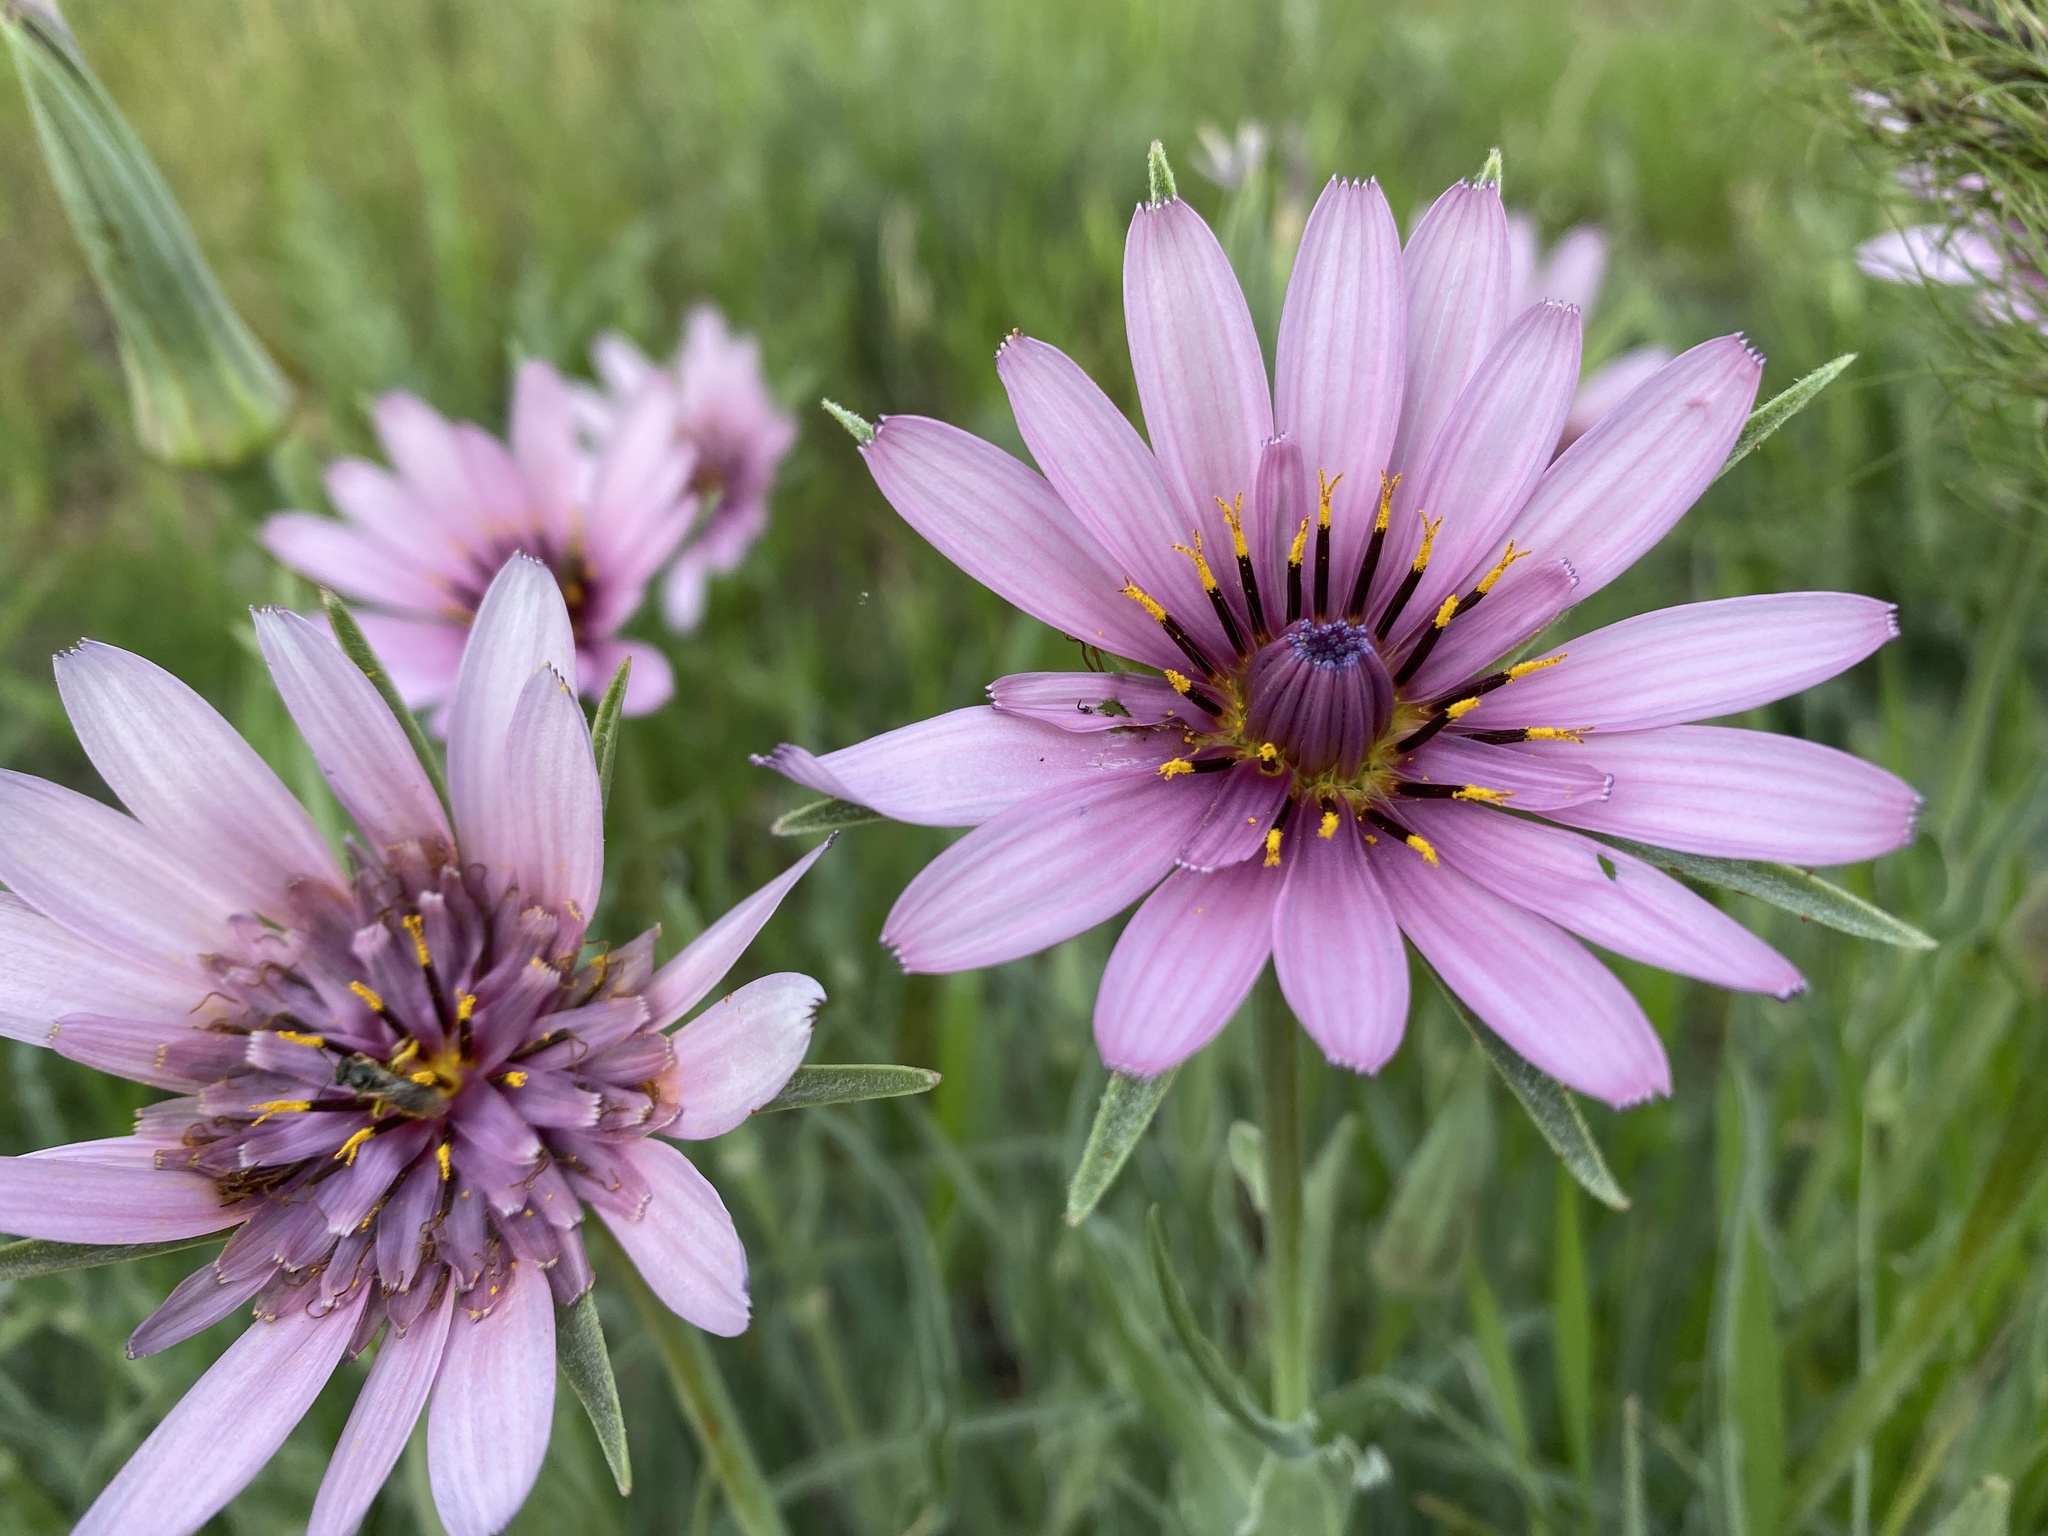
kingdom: Plantae
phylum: Tracheophyta
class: Magnoliopsida
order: Asterales
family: Asteraceae
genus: Tragopogon
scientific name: Tragopogon marginifolius
